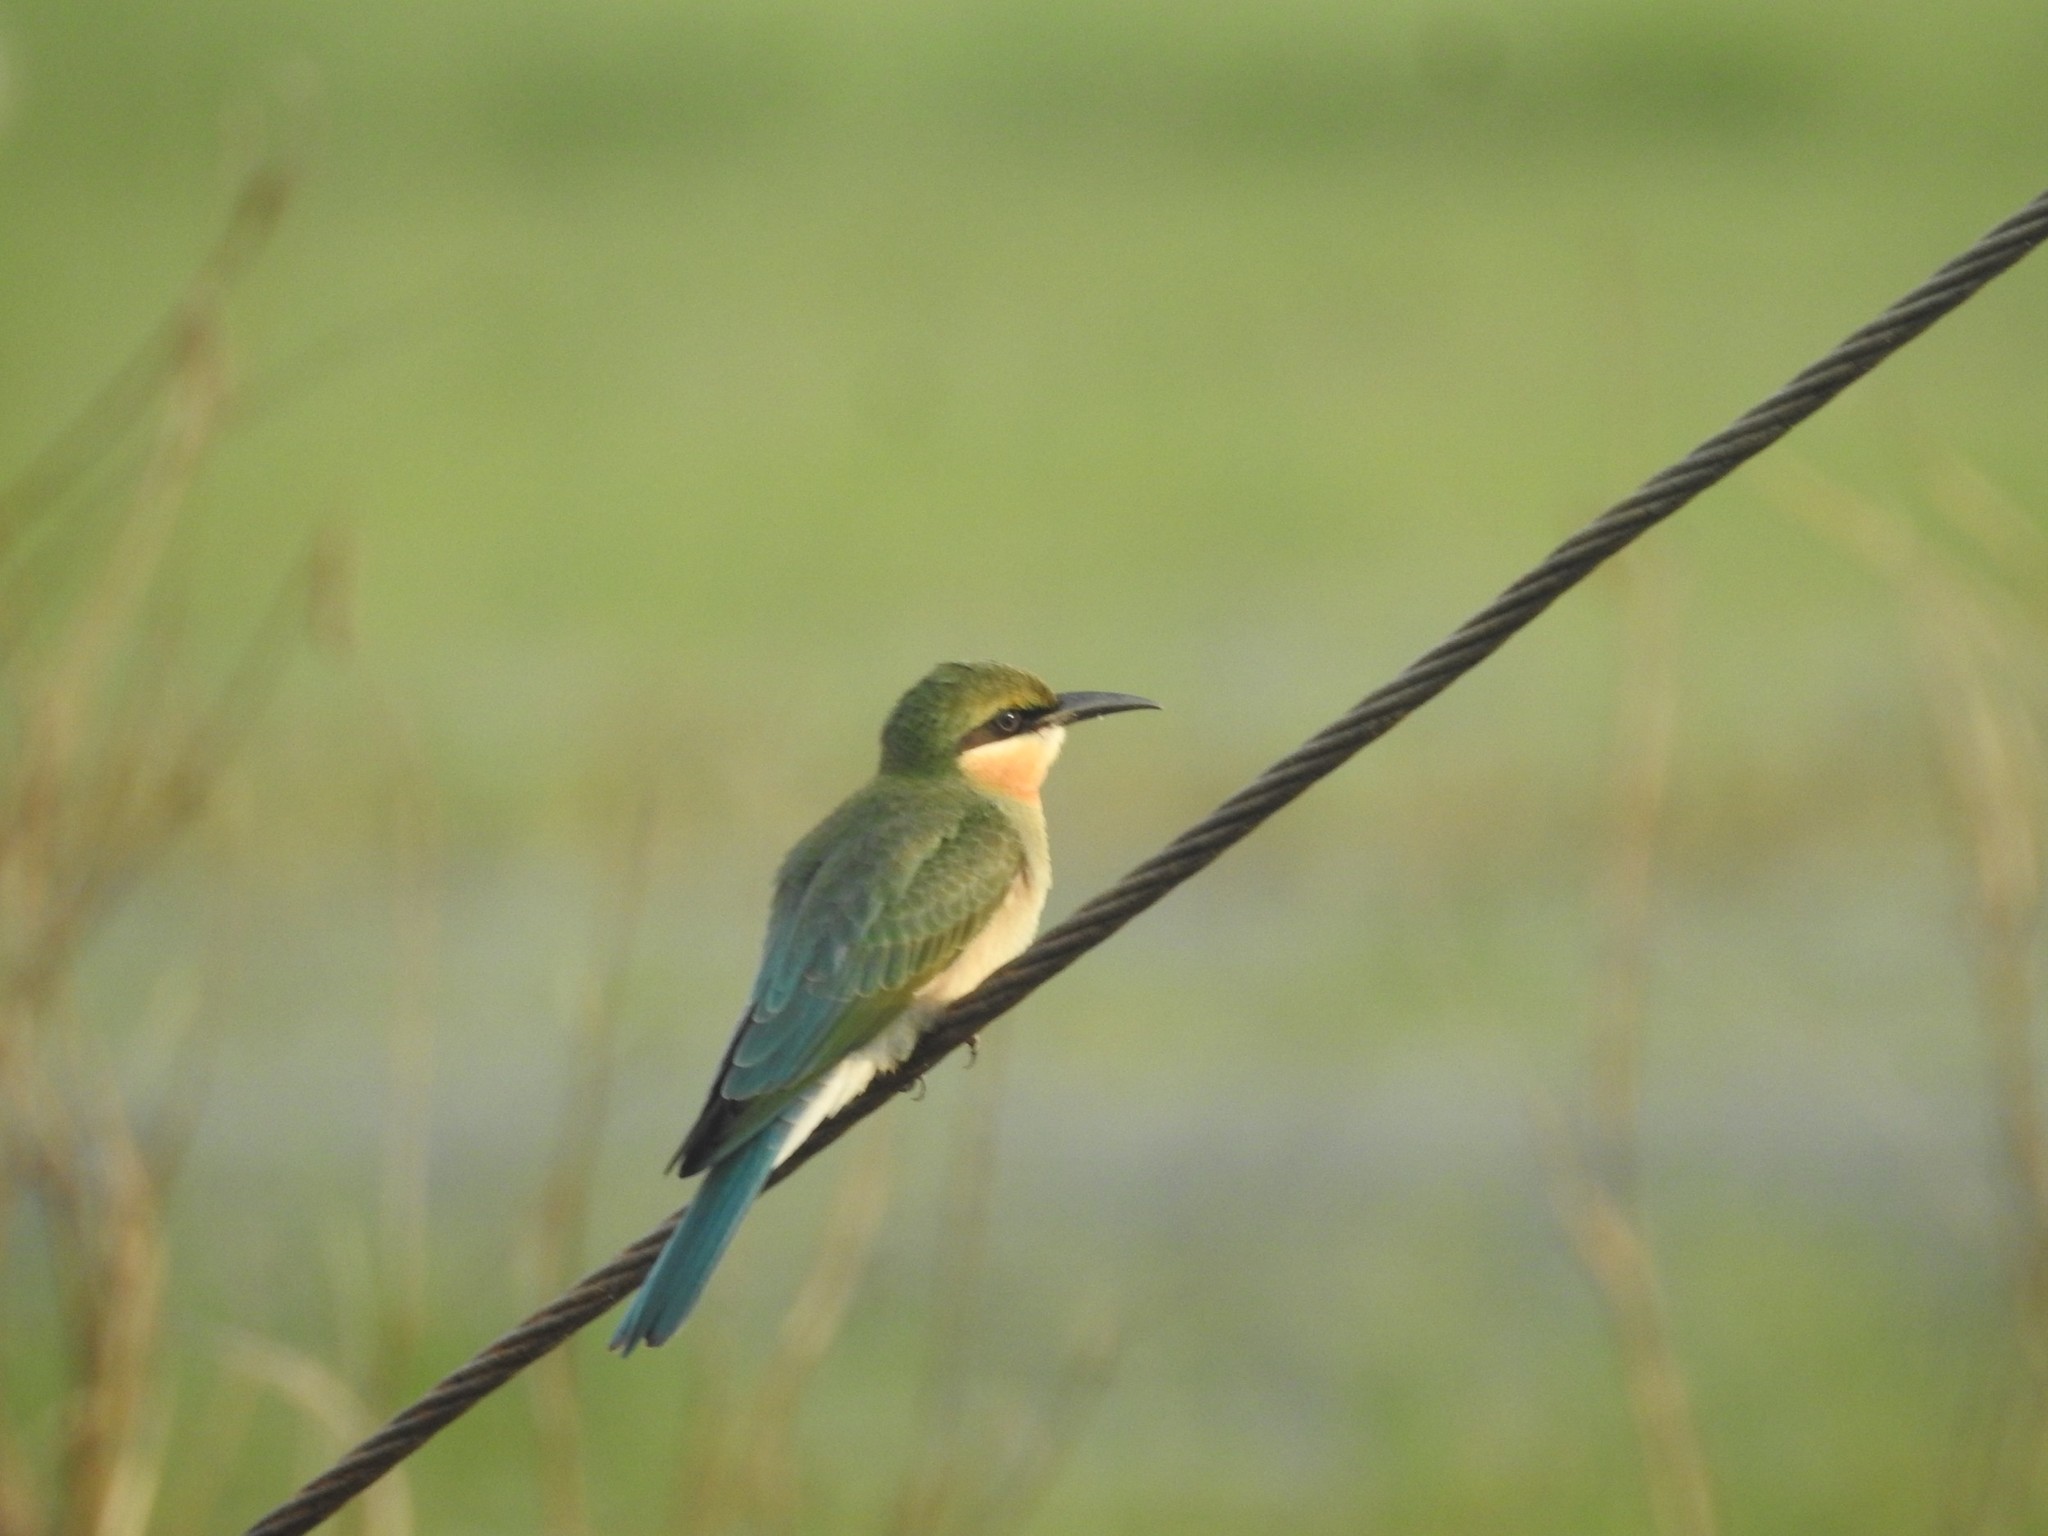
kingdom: Animalia
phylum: Chordata
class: Aves
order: Coraciiformes
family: Meropidae
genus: Merops
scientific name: Merops philippinus
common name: Blue-tailed bee-eater
